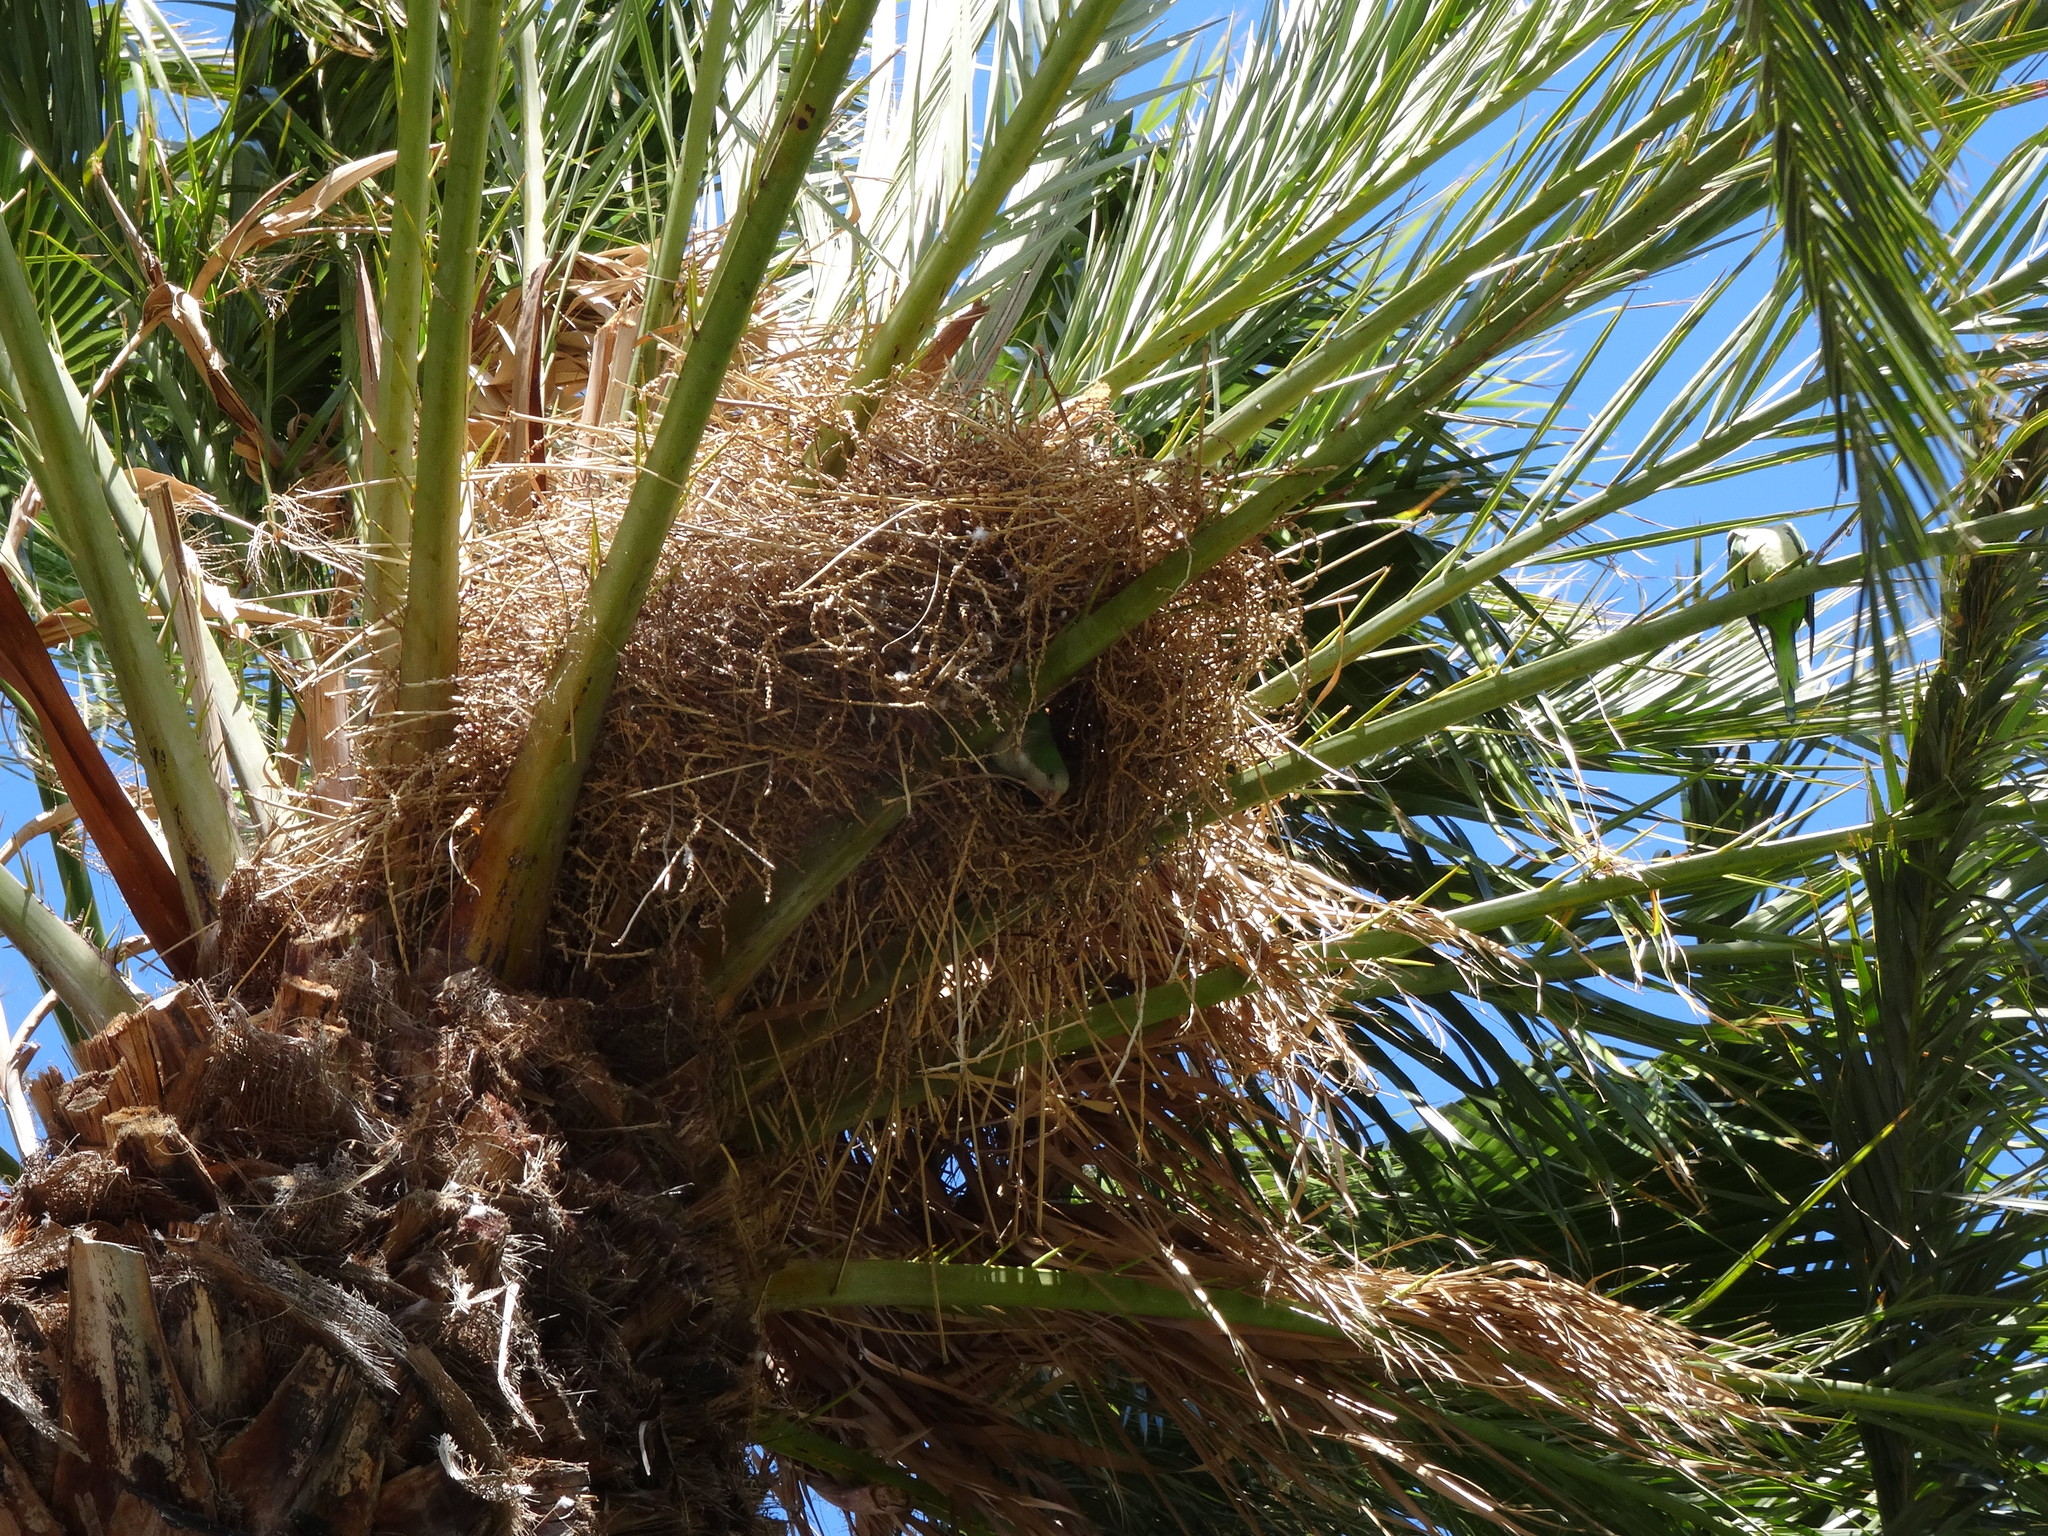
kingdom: Animalia
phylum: Chordata
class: Aves
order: Psittaciformes
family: Psittacidae
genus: Myiopsitta
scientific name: Myiopsitta monachus
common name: Monk parakeet
